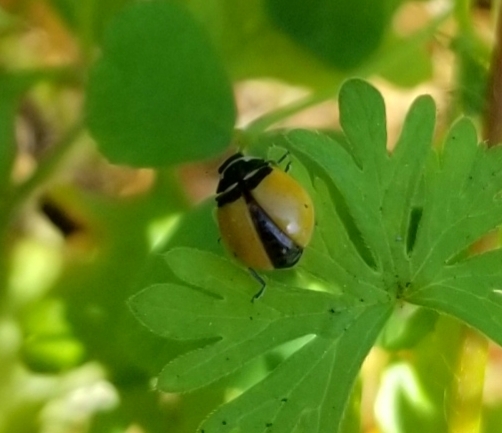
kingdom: Animalia
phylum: Arthropoda
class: Insecta
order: Coleoptera
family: Coccinellidae
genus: Coccinella
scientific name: Coccinella trifasciata
